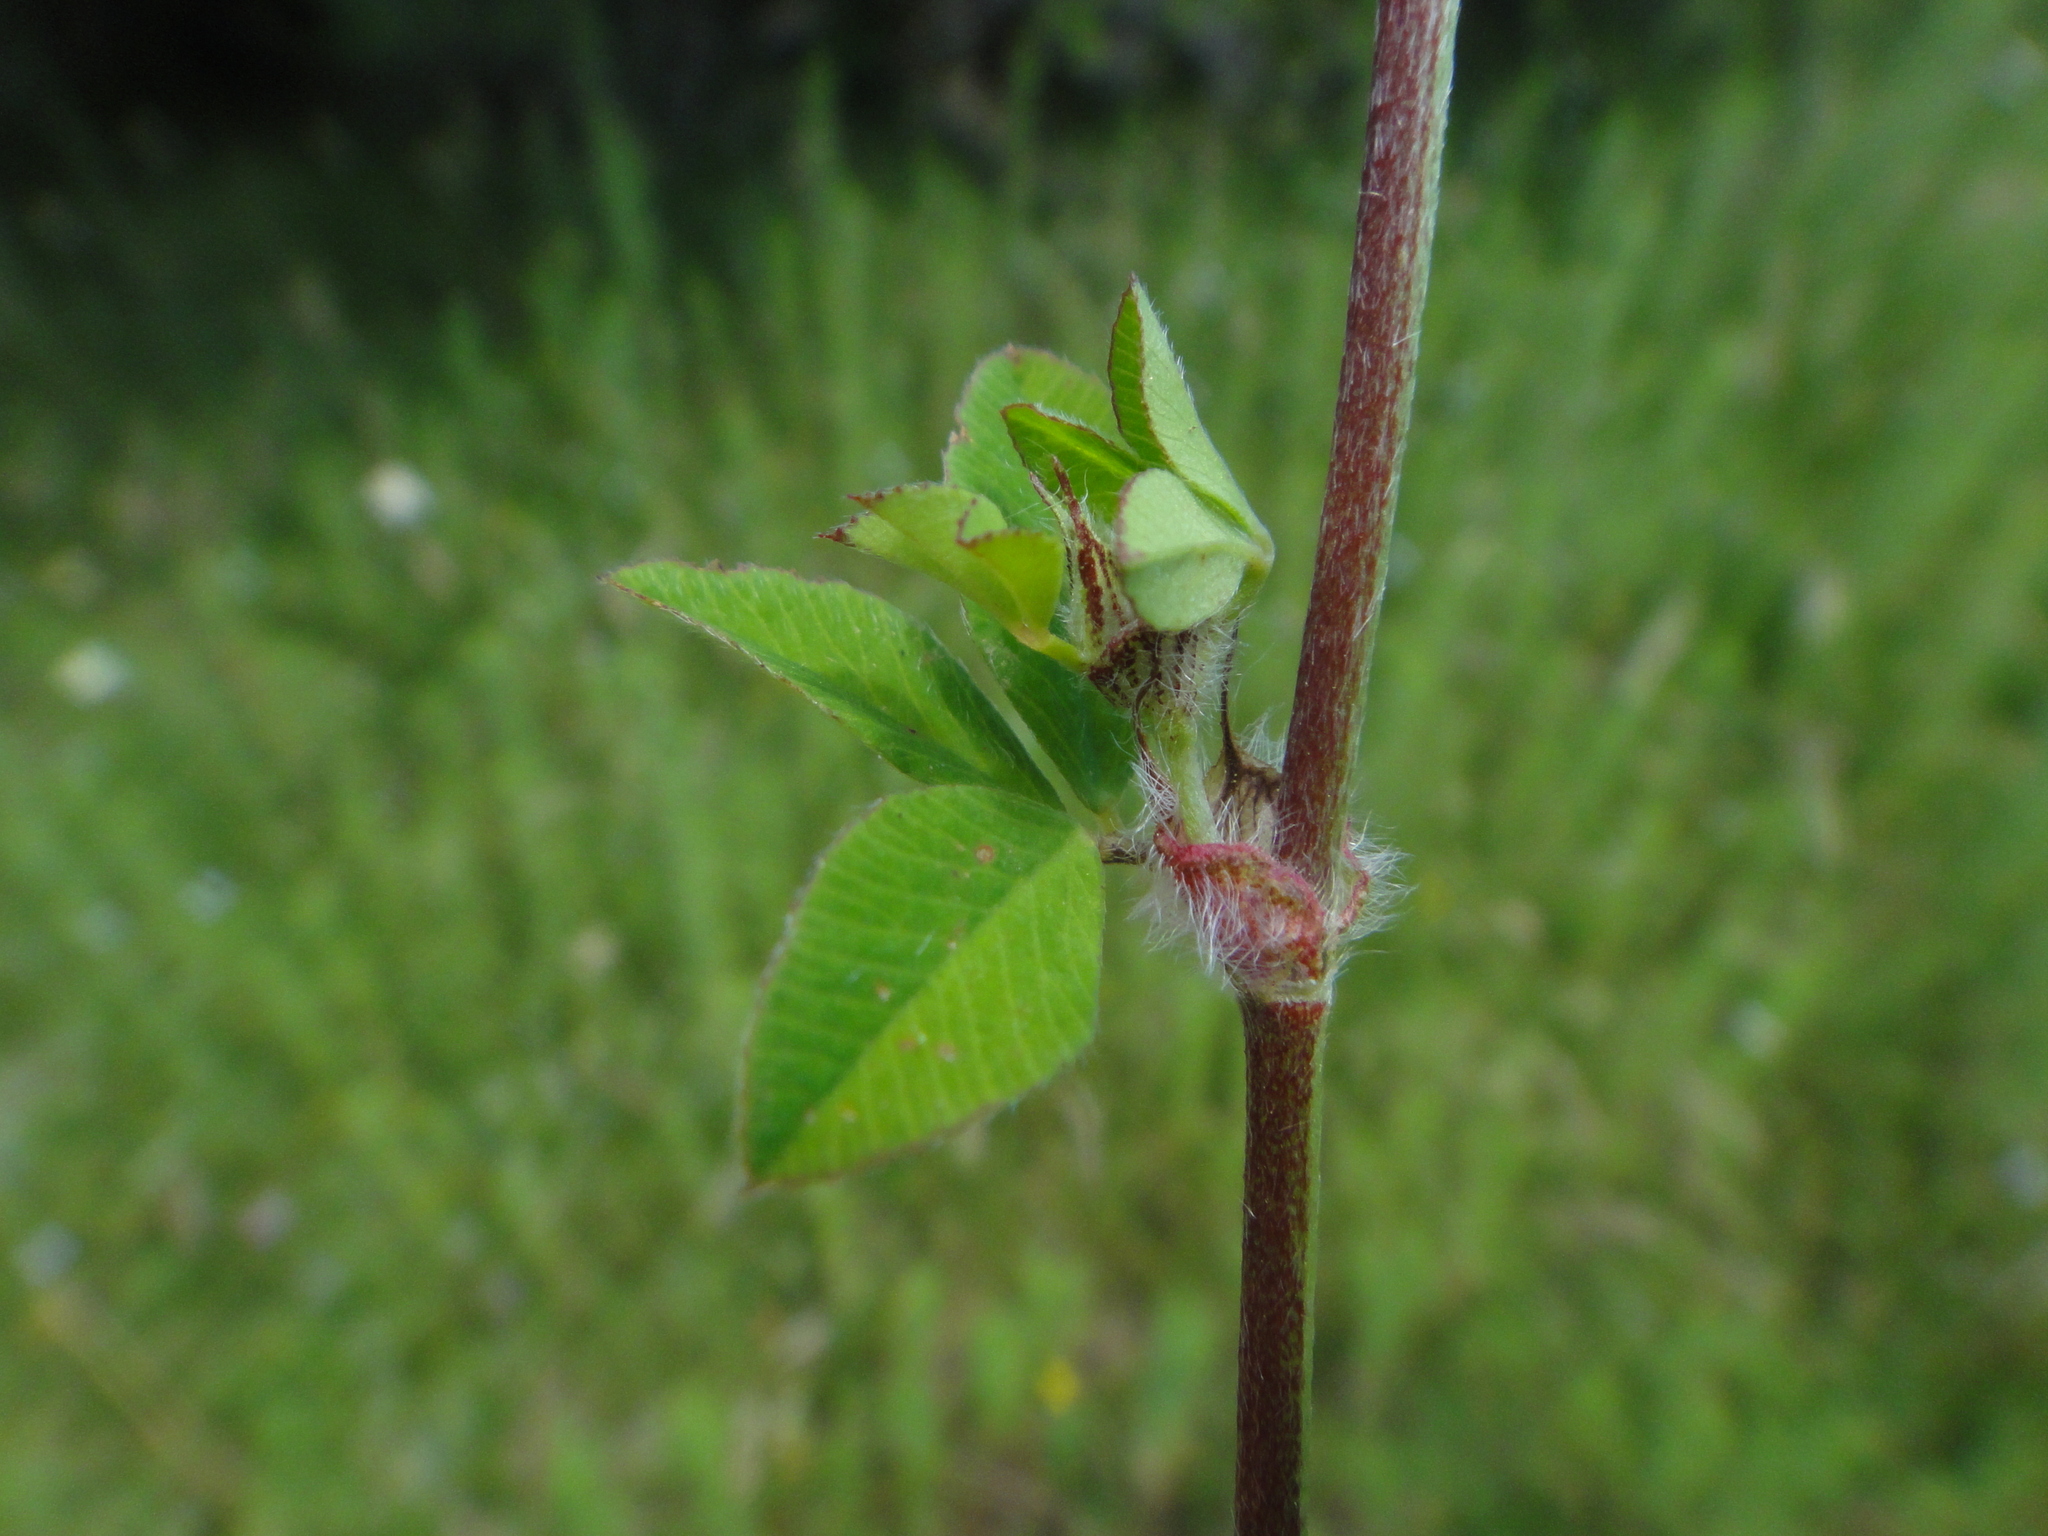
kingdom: Plantae
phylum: Tracheophyta
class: Magnoliopsida
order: Fabales
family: Fabaceae
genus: Trifolium
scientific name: Trifolium pallidum
